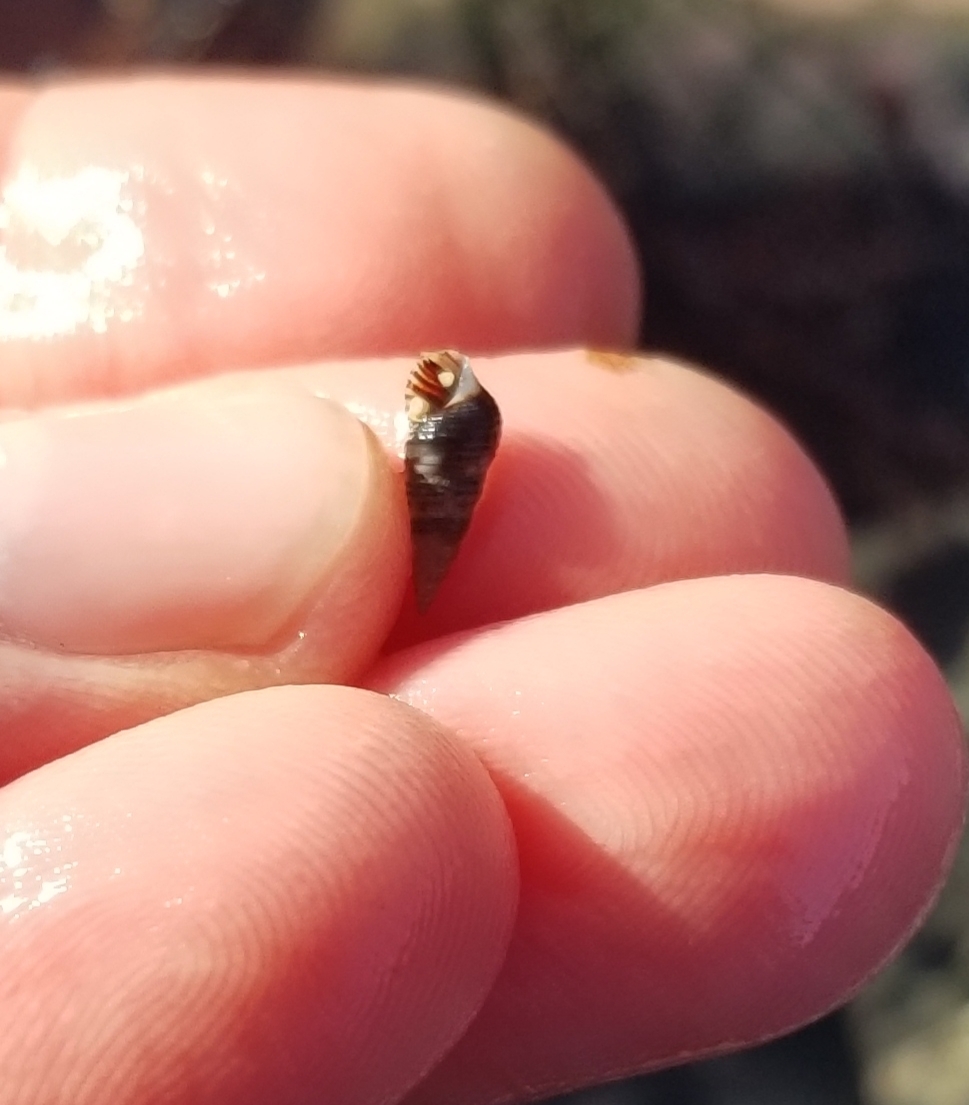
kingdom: Animalia
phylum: Mollusca
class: Gastropoda
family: Cerithiidae
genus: Neostylidium
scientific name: Neostylidium eschrichtii
